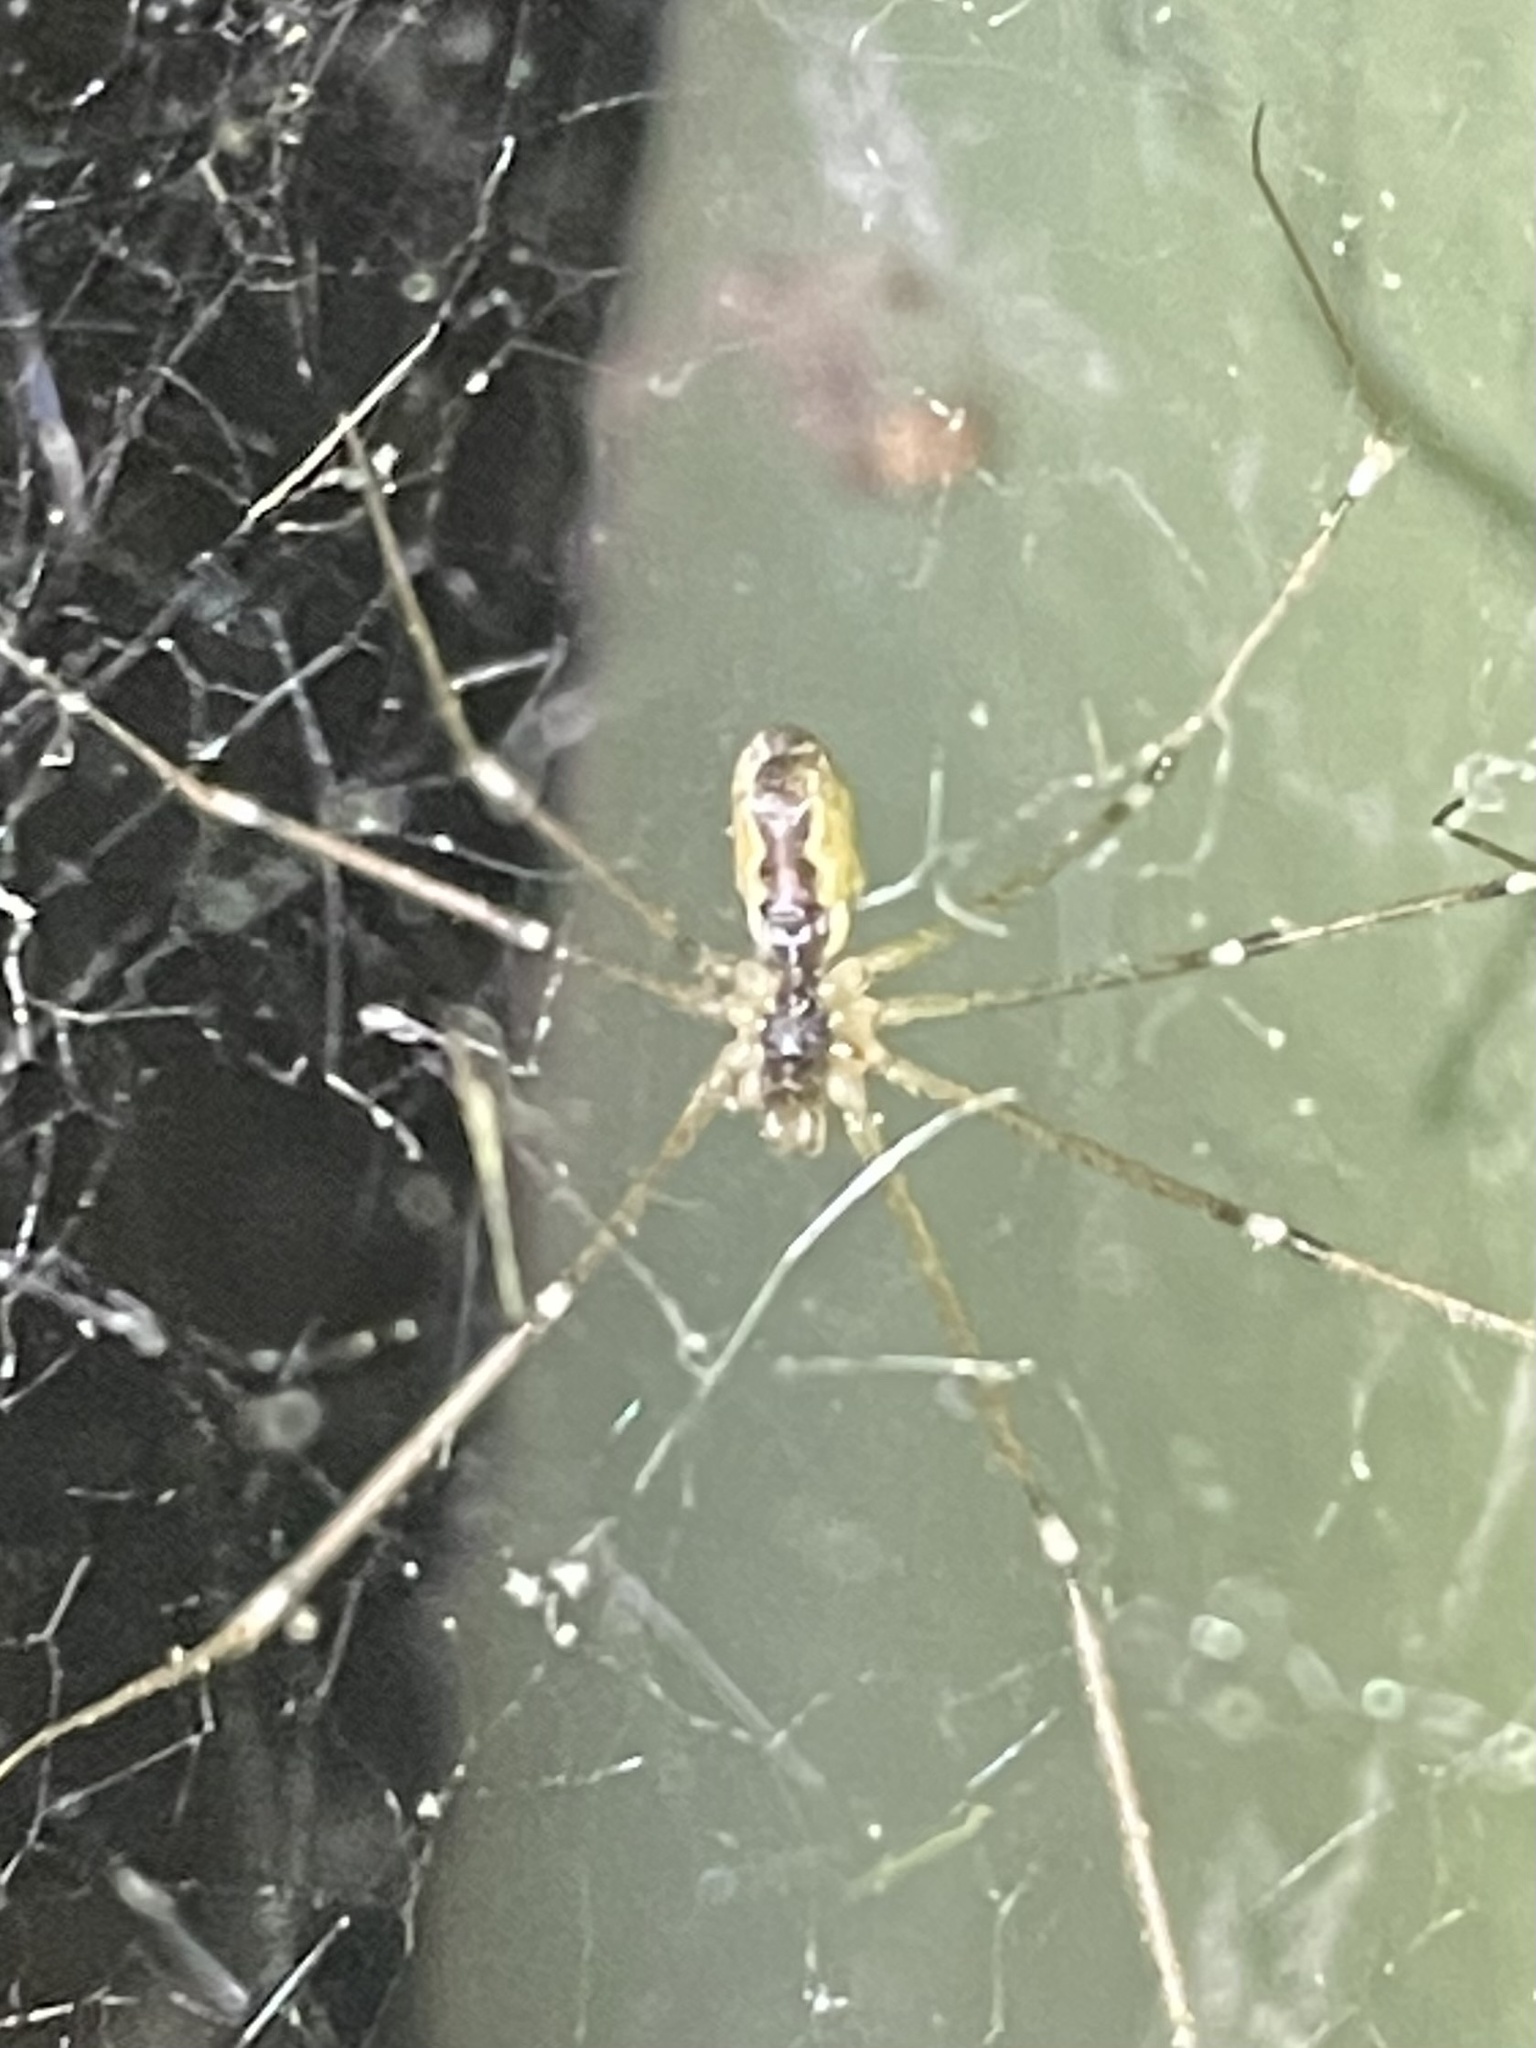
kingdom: Animalia
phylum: Arthropoda
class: Arachnida
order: Araneae
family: Pholcidae
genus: Holocnemus
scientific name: Holocnemus pluchei
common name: Marbled cellar spider
